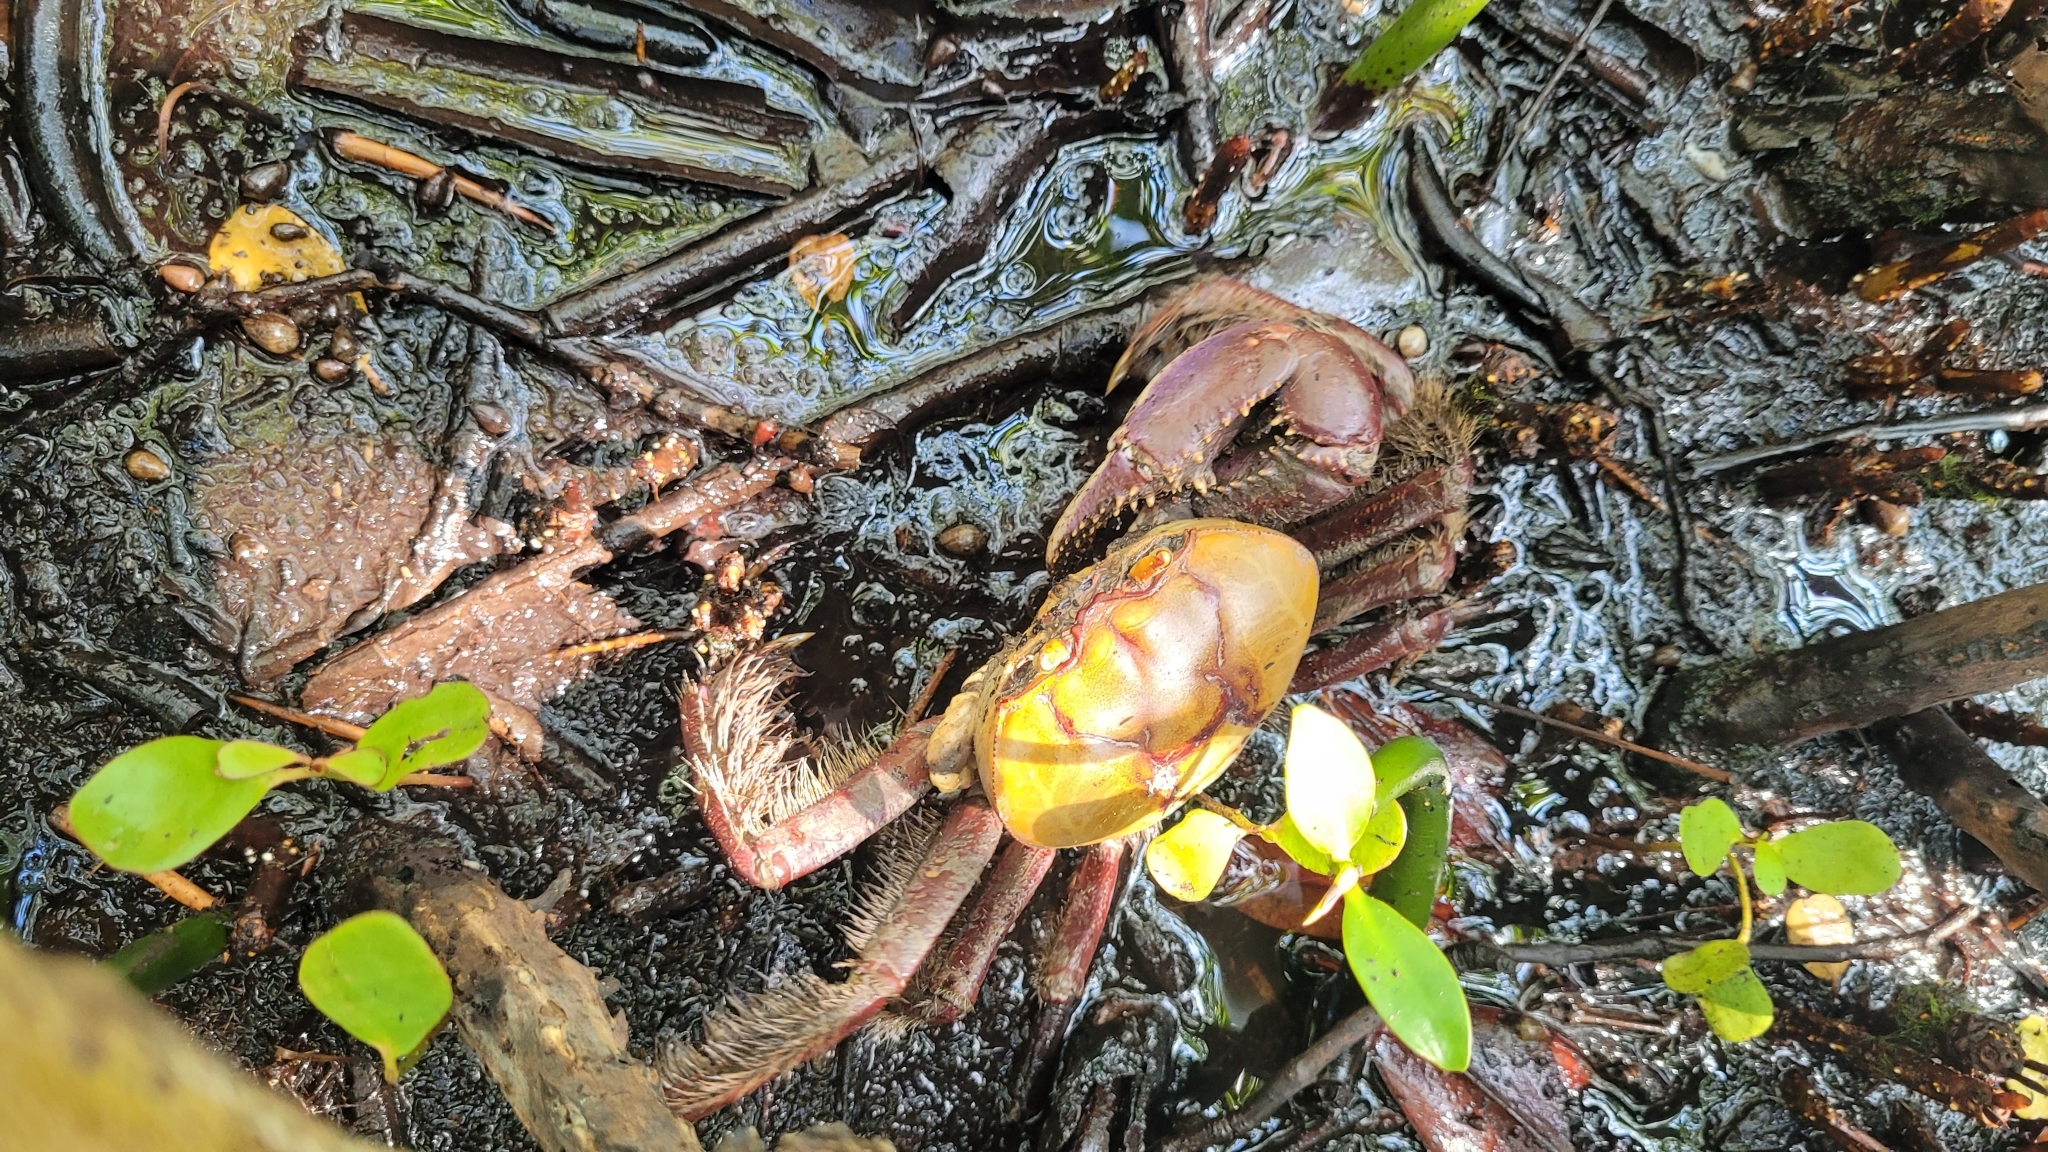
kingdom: Animalia
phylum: Arthropoda
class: Malacostraca
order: Decapoda
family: Ocypodidae
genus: Ucides
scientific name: Ucides cordatus
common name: Swamp ghost crab
